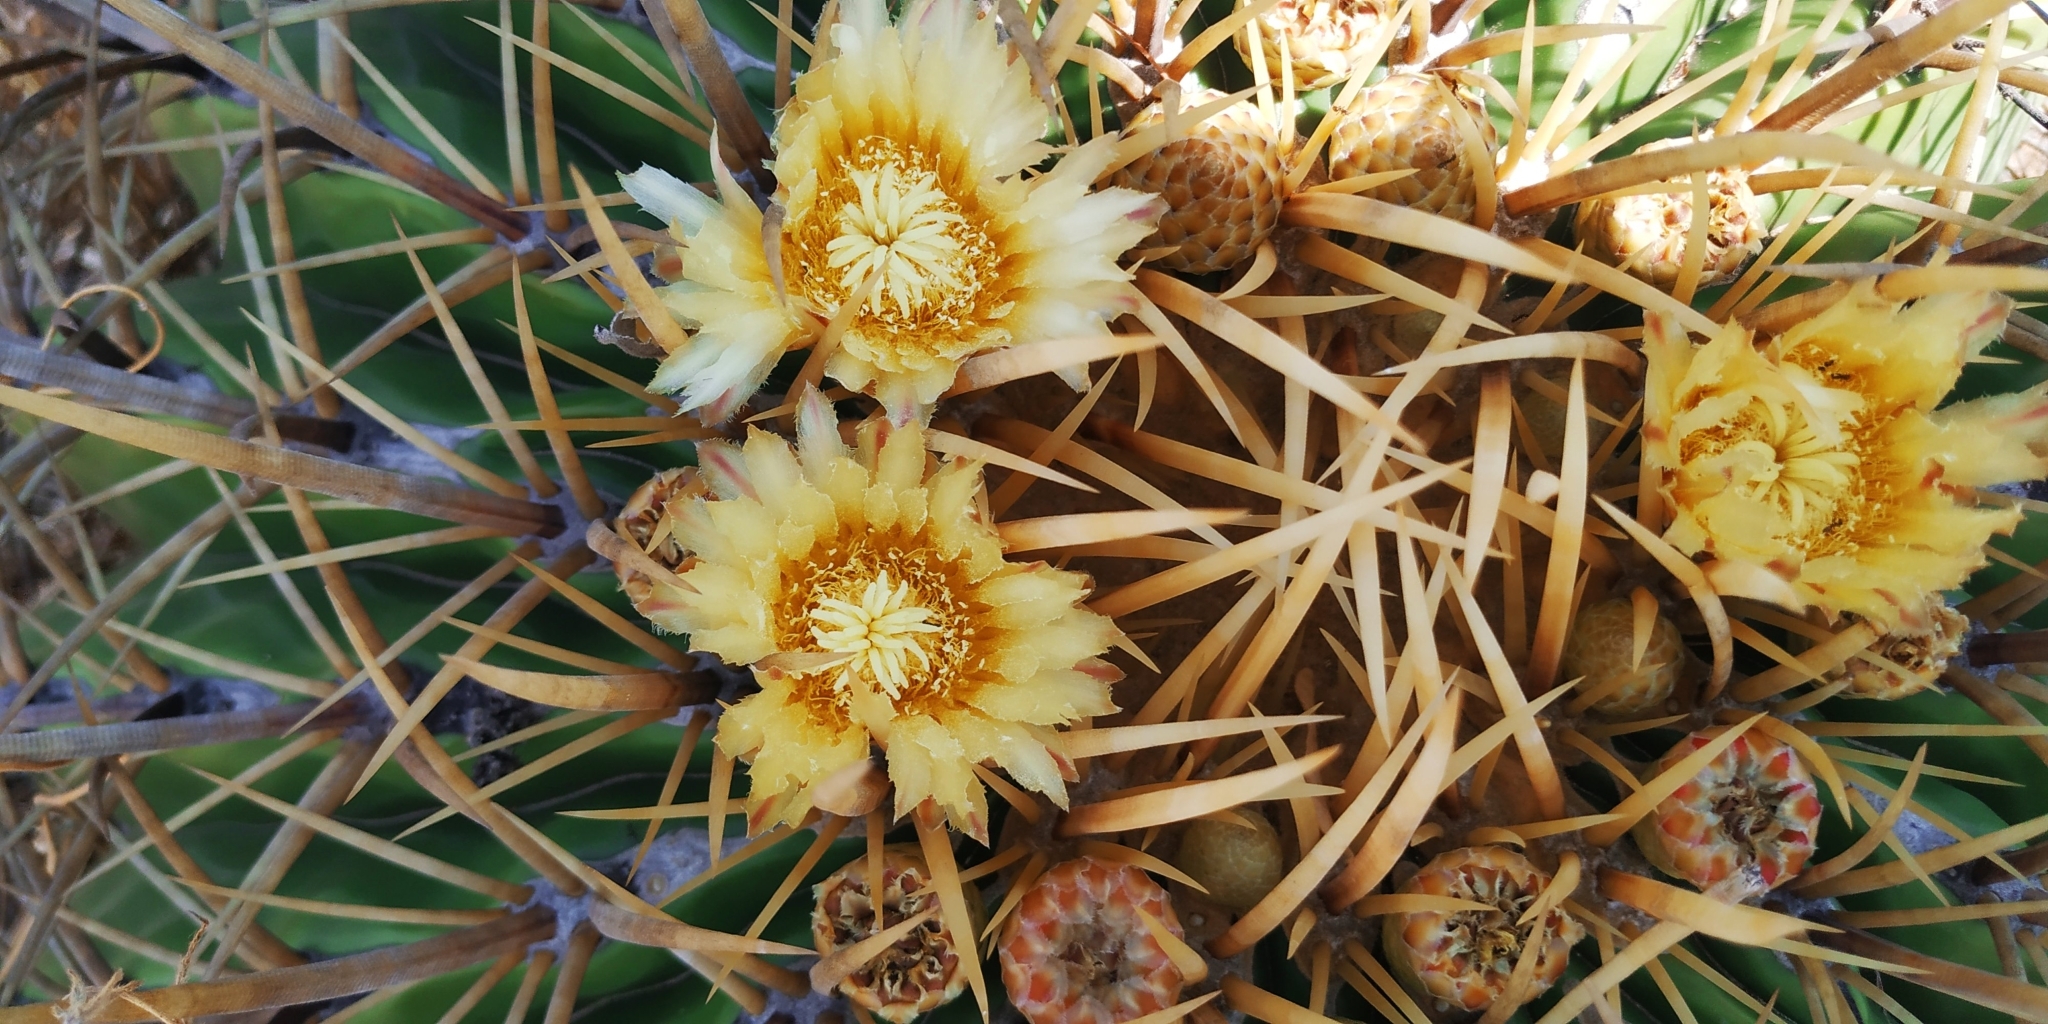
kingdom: Plantae
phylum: Tracheophyta
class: Magnoliopsida
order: Caryophyllales
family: Cactaceae
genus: Bisnaga
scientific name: Bisnaga histrix
